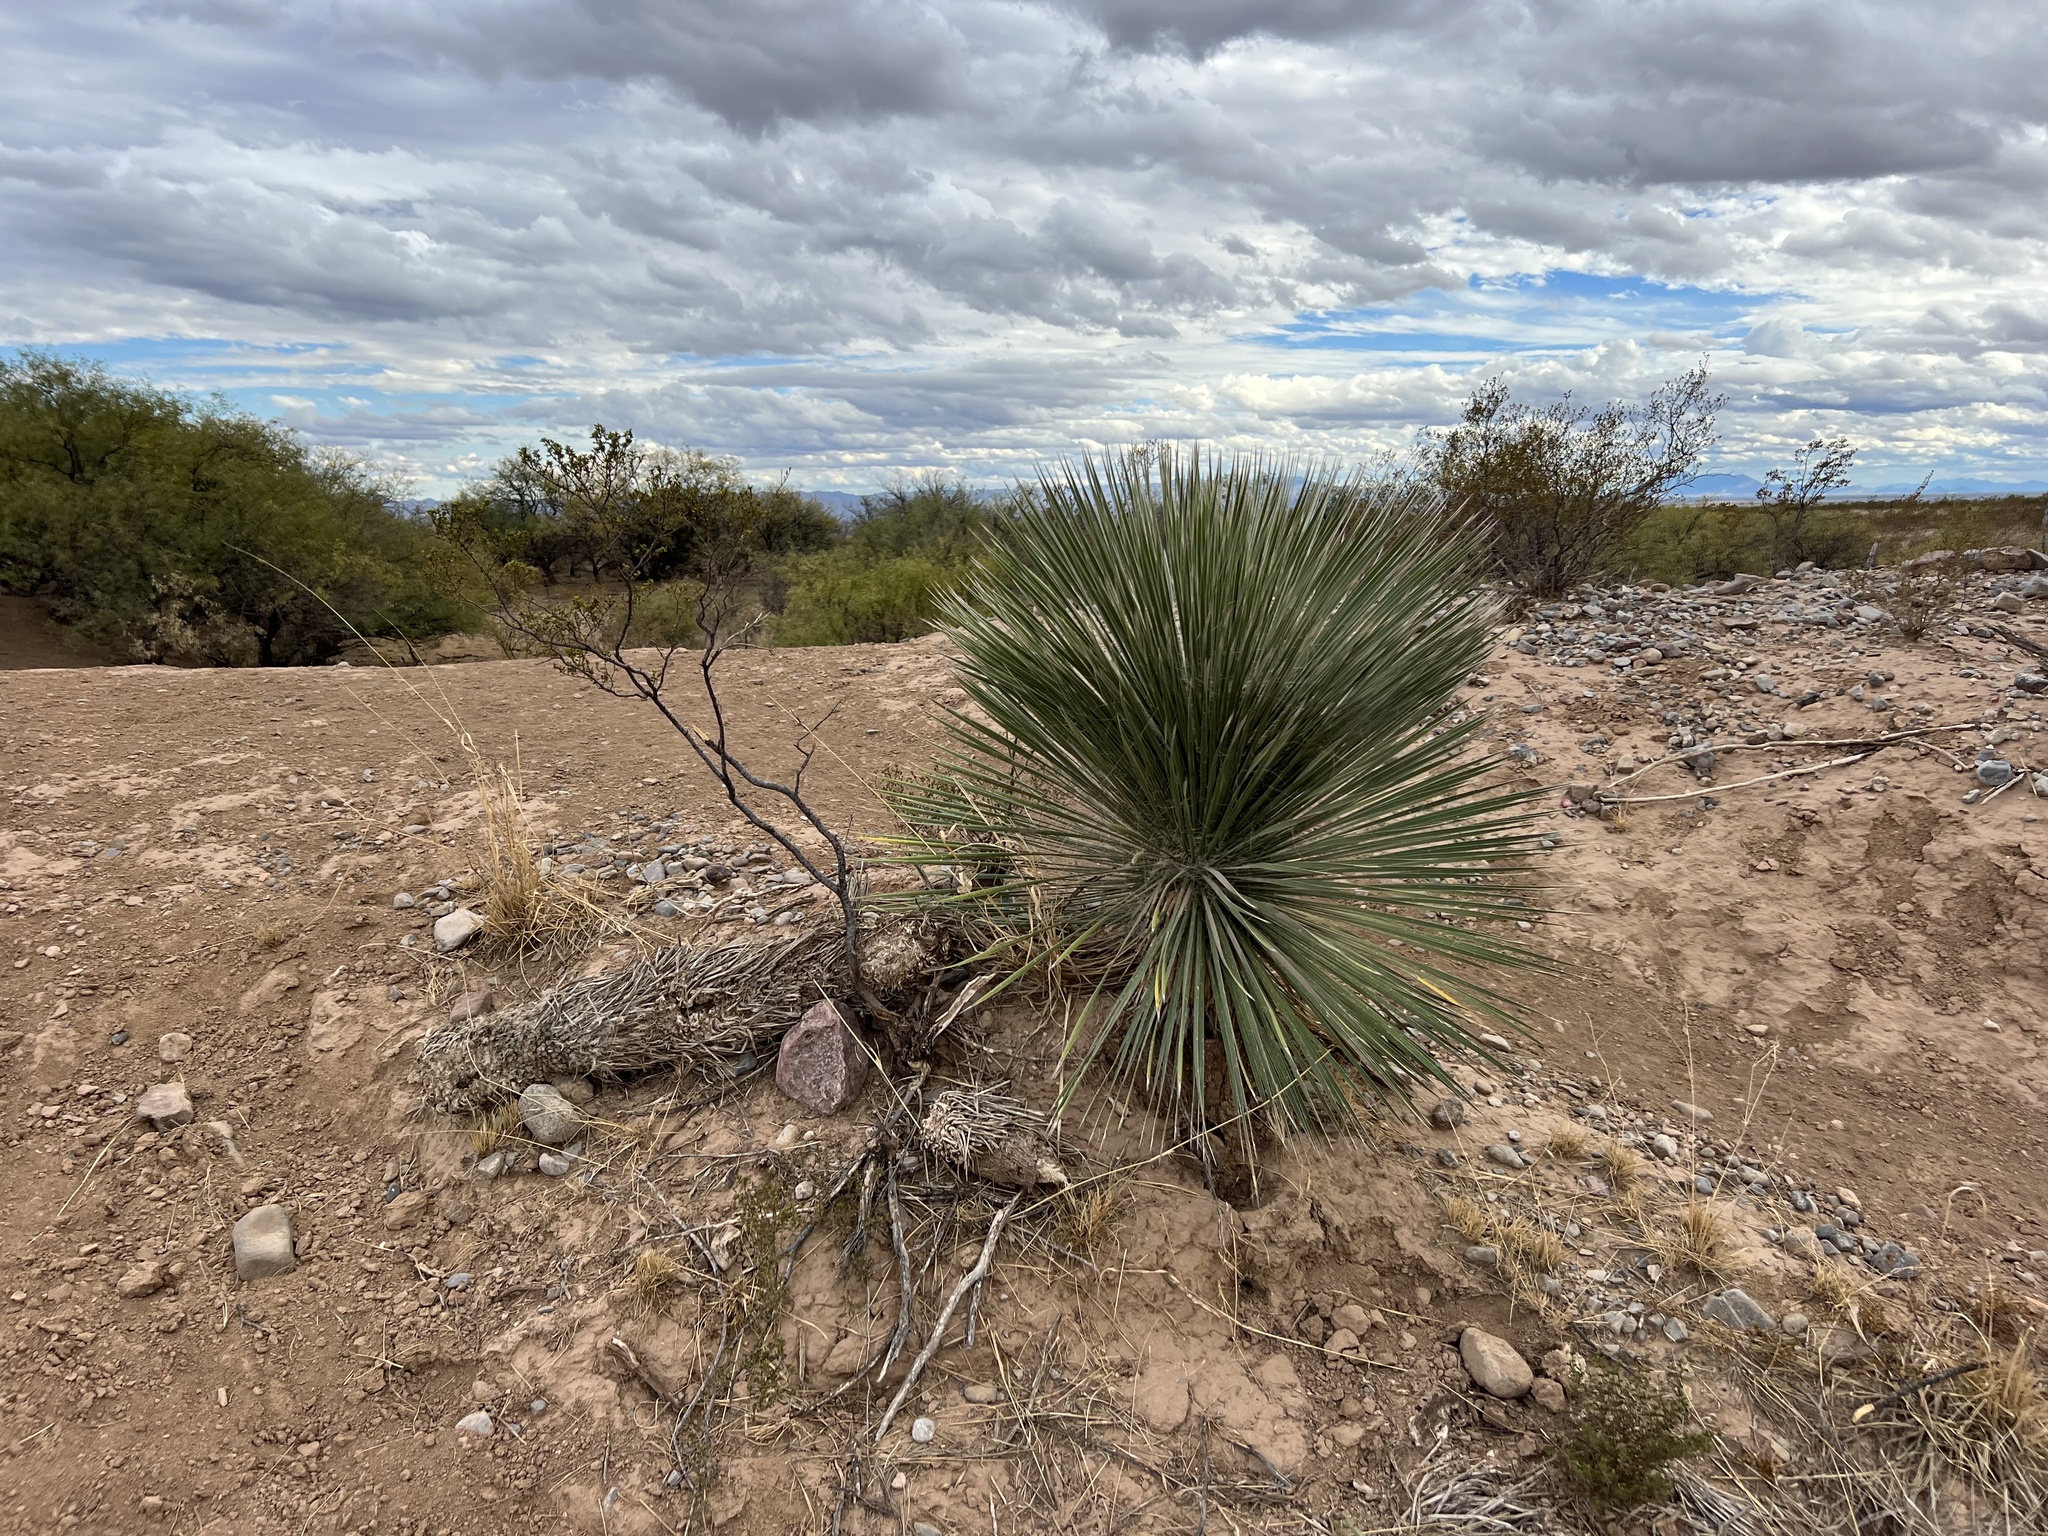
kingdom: Plantae
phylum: Tracheophyta
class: Liliopsida
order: Asparagales
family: Asparagaceae
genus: Yucca
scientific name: Yucca elata
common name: Palmella
